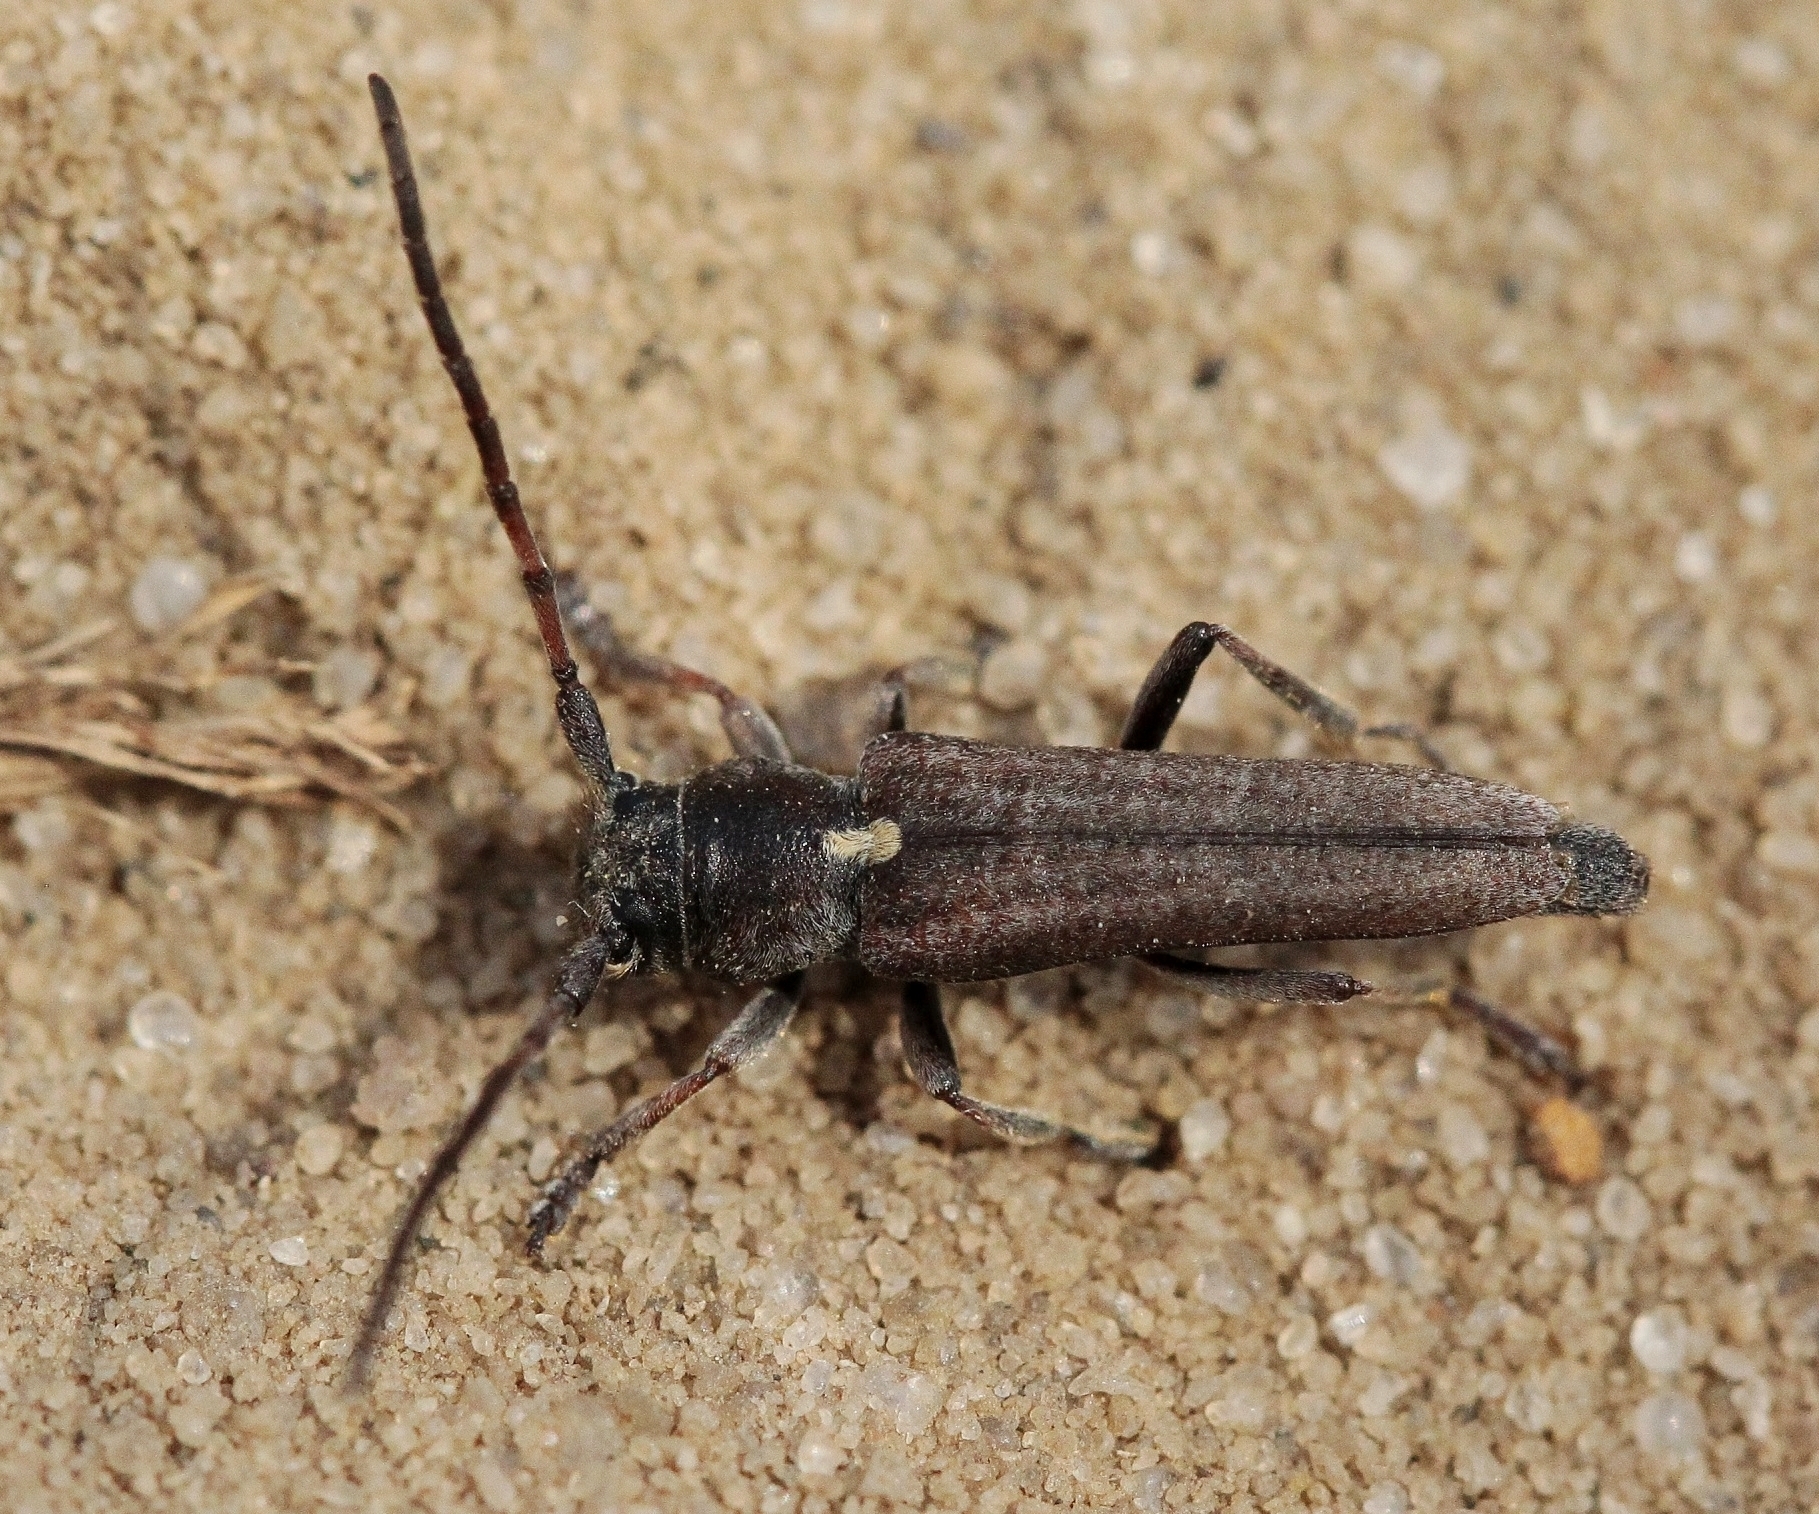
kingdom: Animalia
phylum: Arthropoda
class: Insecta
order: Coleoptera
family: Cerambycidae
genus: Cardoria
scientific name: Cardoria scutellata
